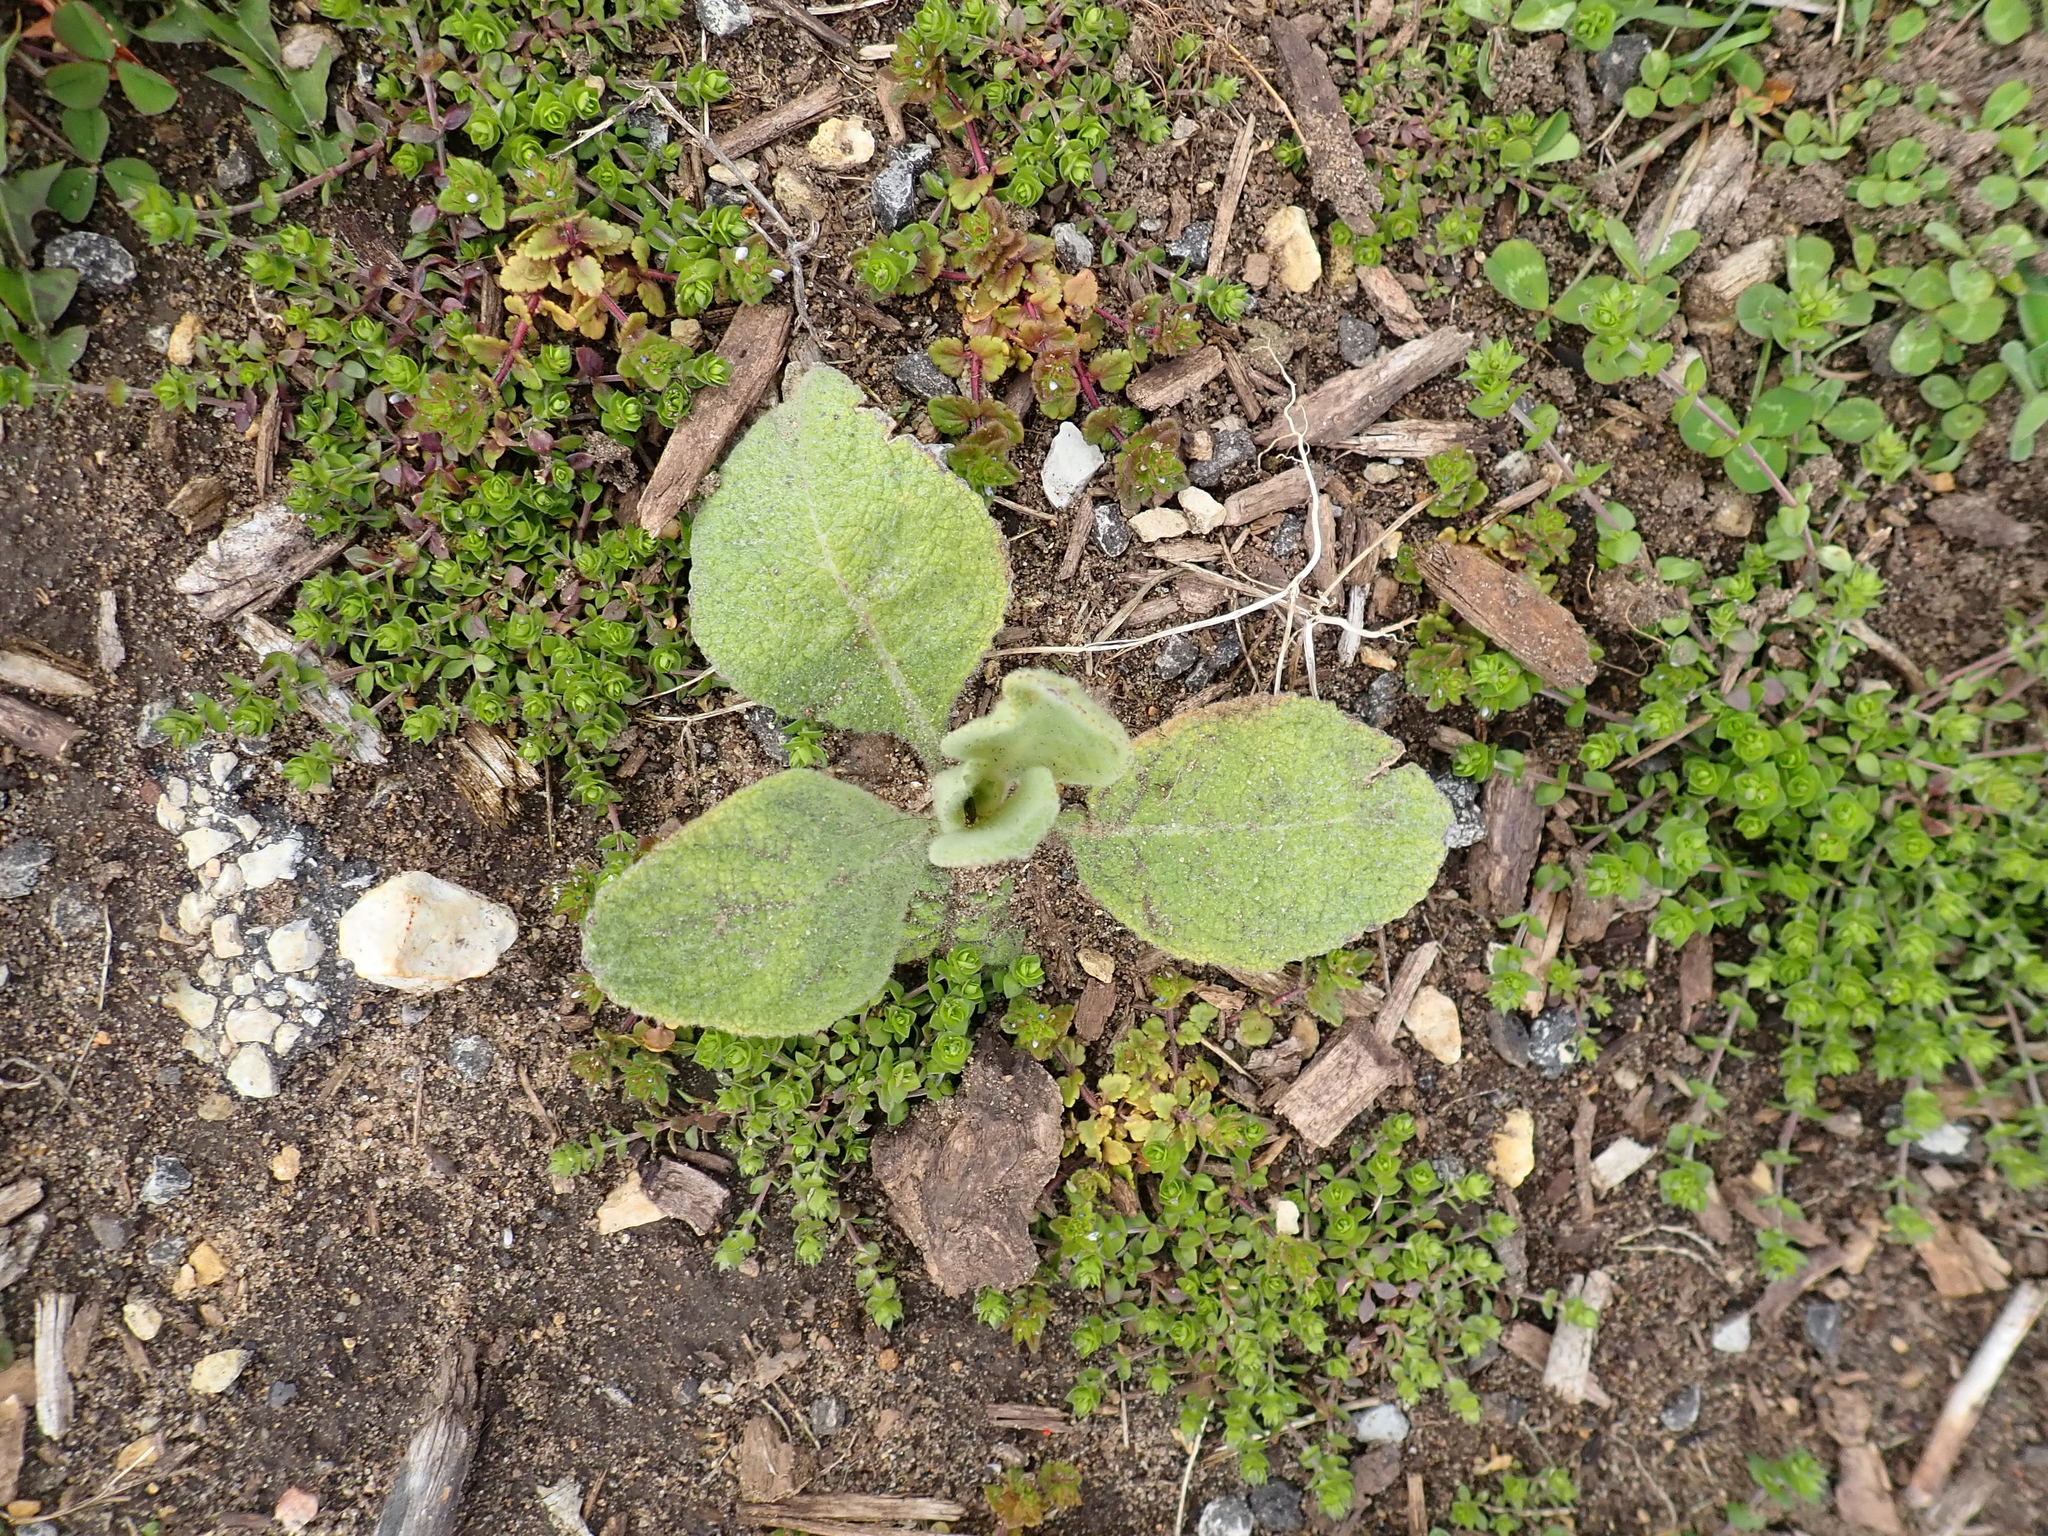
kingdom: Plantae
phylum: Tracheophyta
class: Magnoliopsida
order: Lamiales
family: Scrophulariaceae
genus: Verbascum
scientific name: Verbascum thapsus
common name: Common mullein
